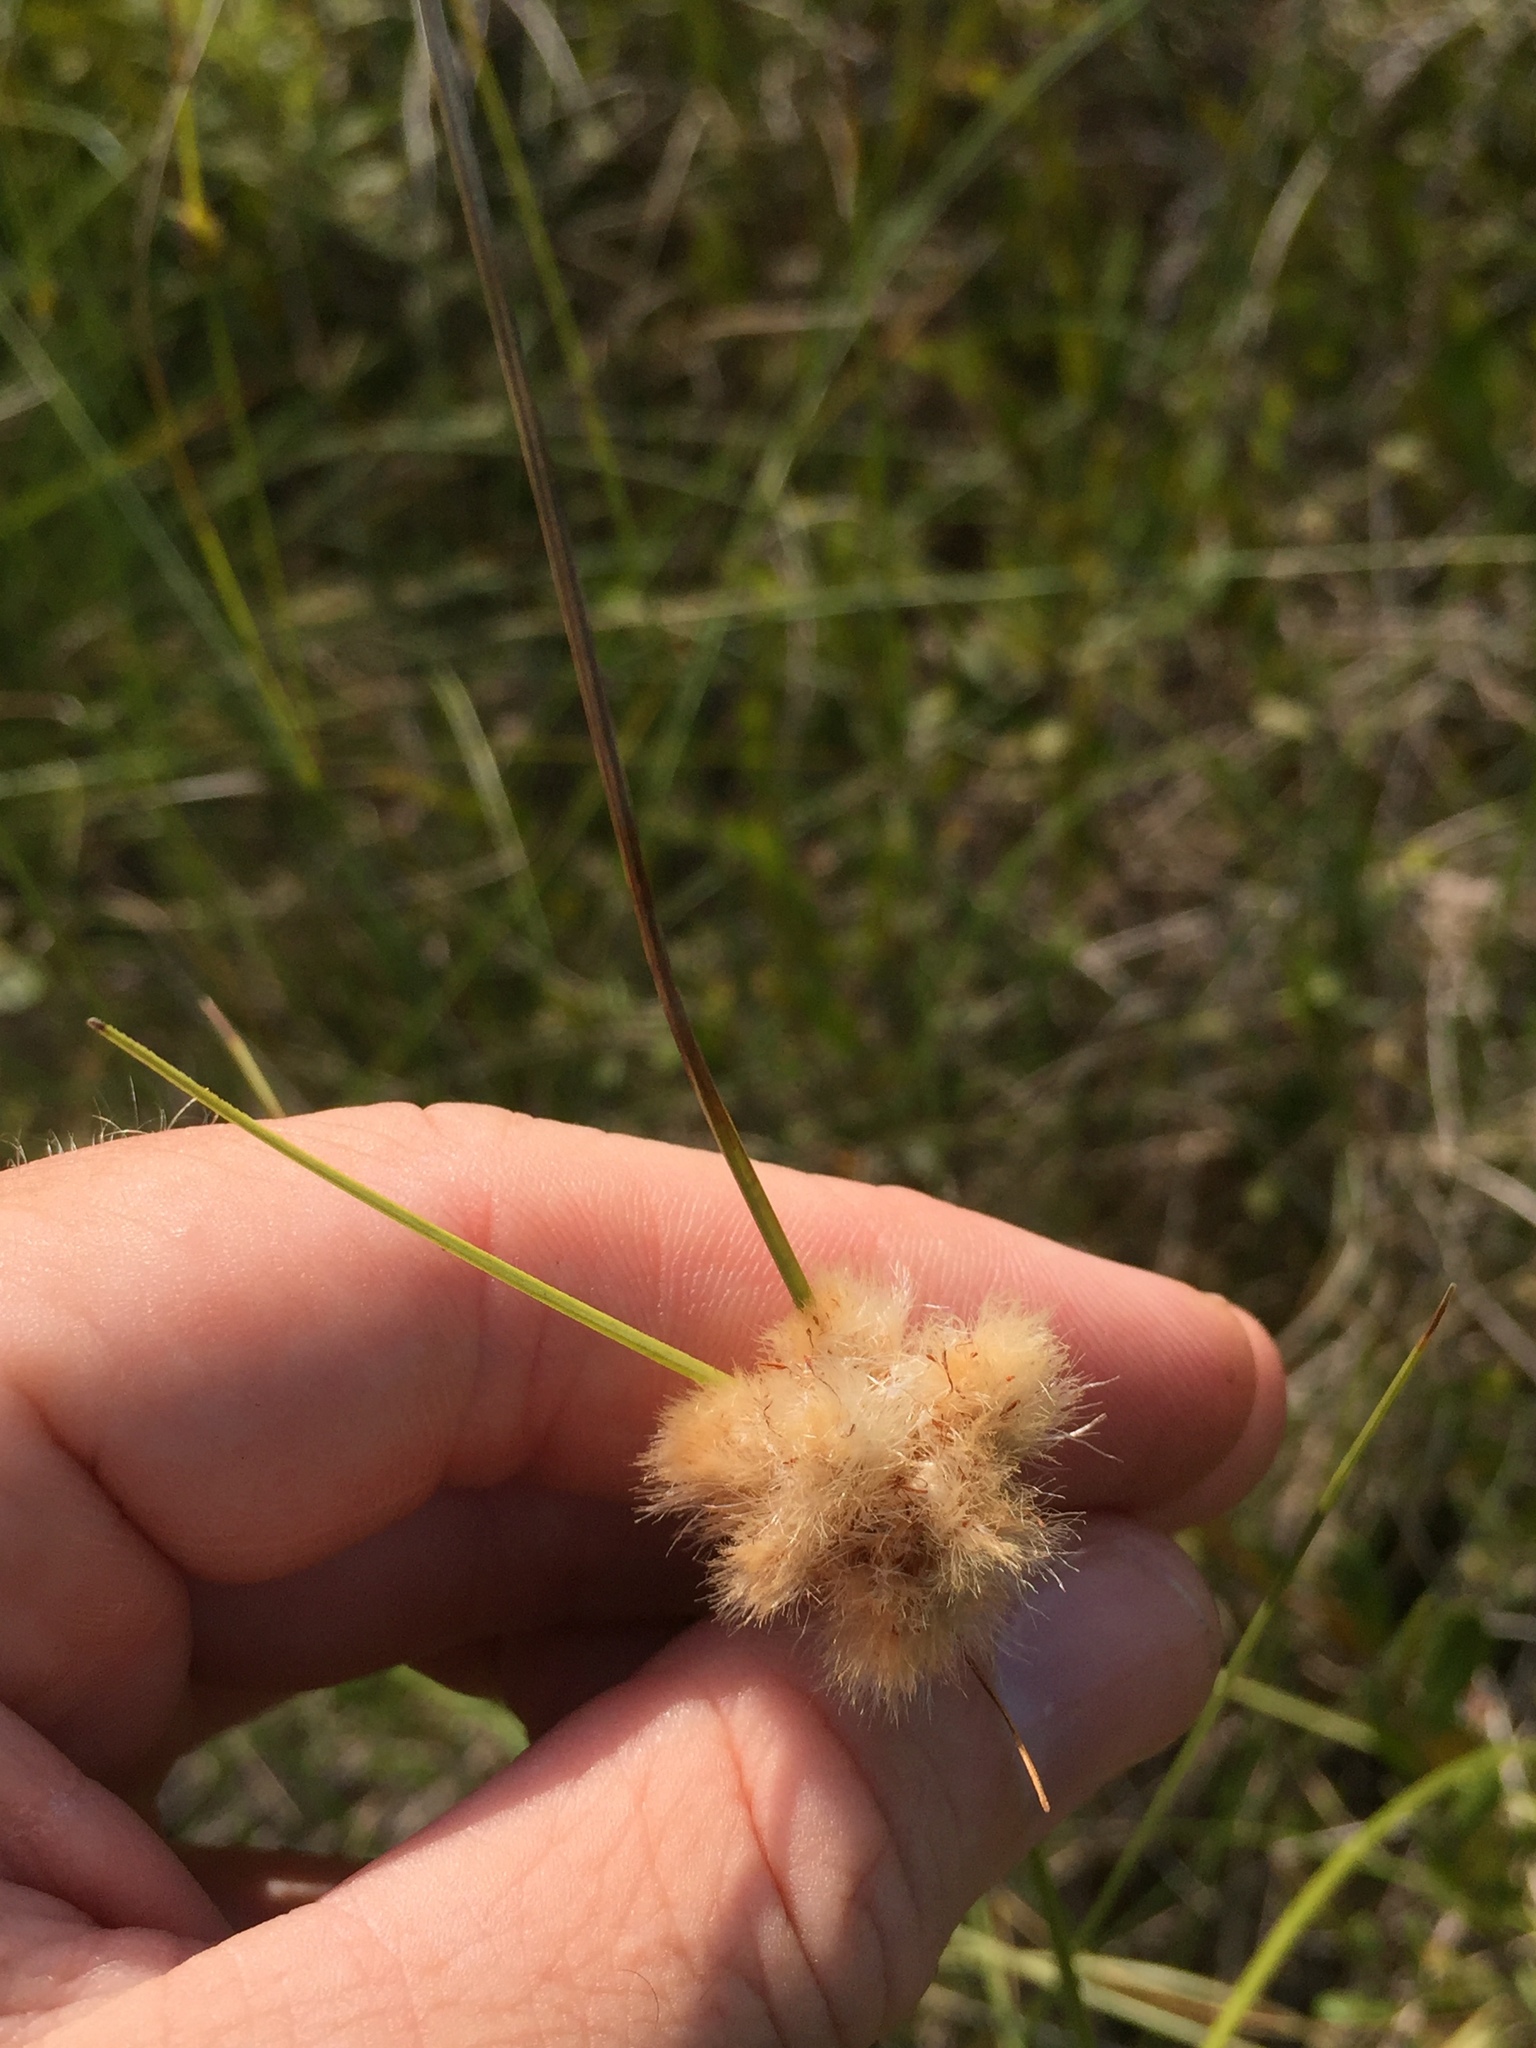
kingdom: Plantae
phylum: Tracheophyta
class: Liliopsida
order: Poales
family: Cyperaceae
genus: Eriophorum
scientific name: Eriophorum virginicum
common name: Tawny cottongrass
